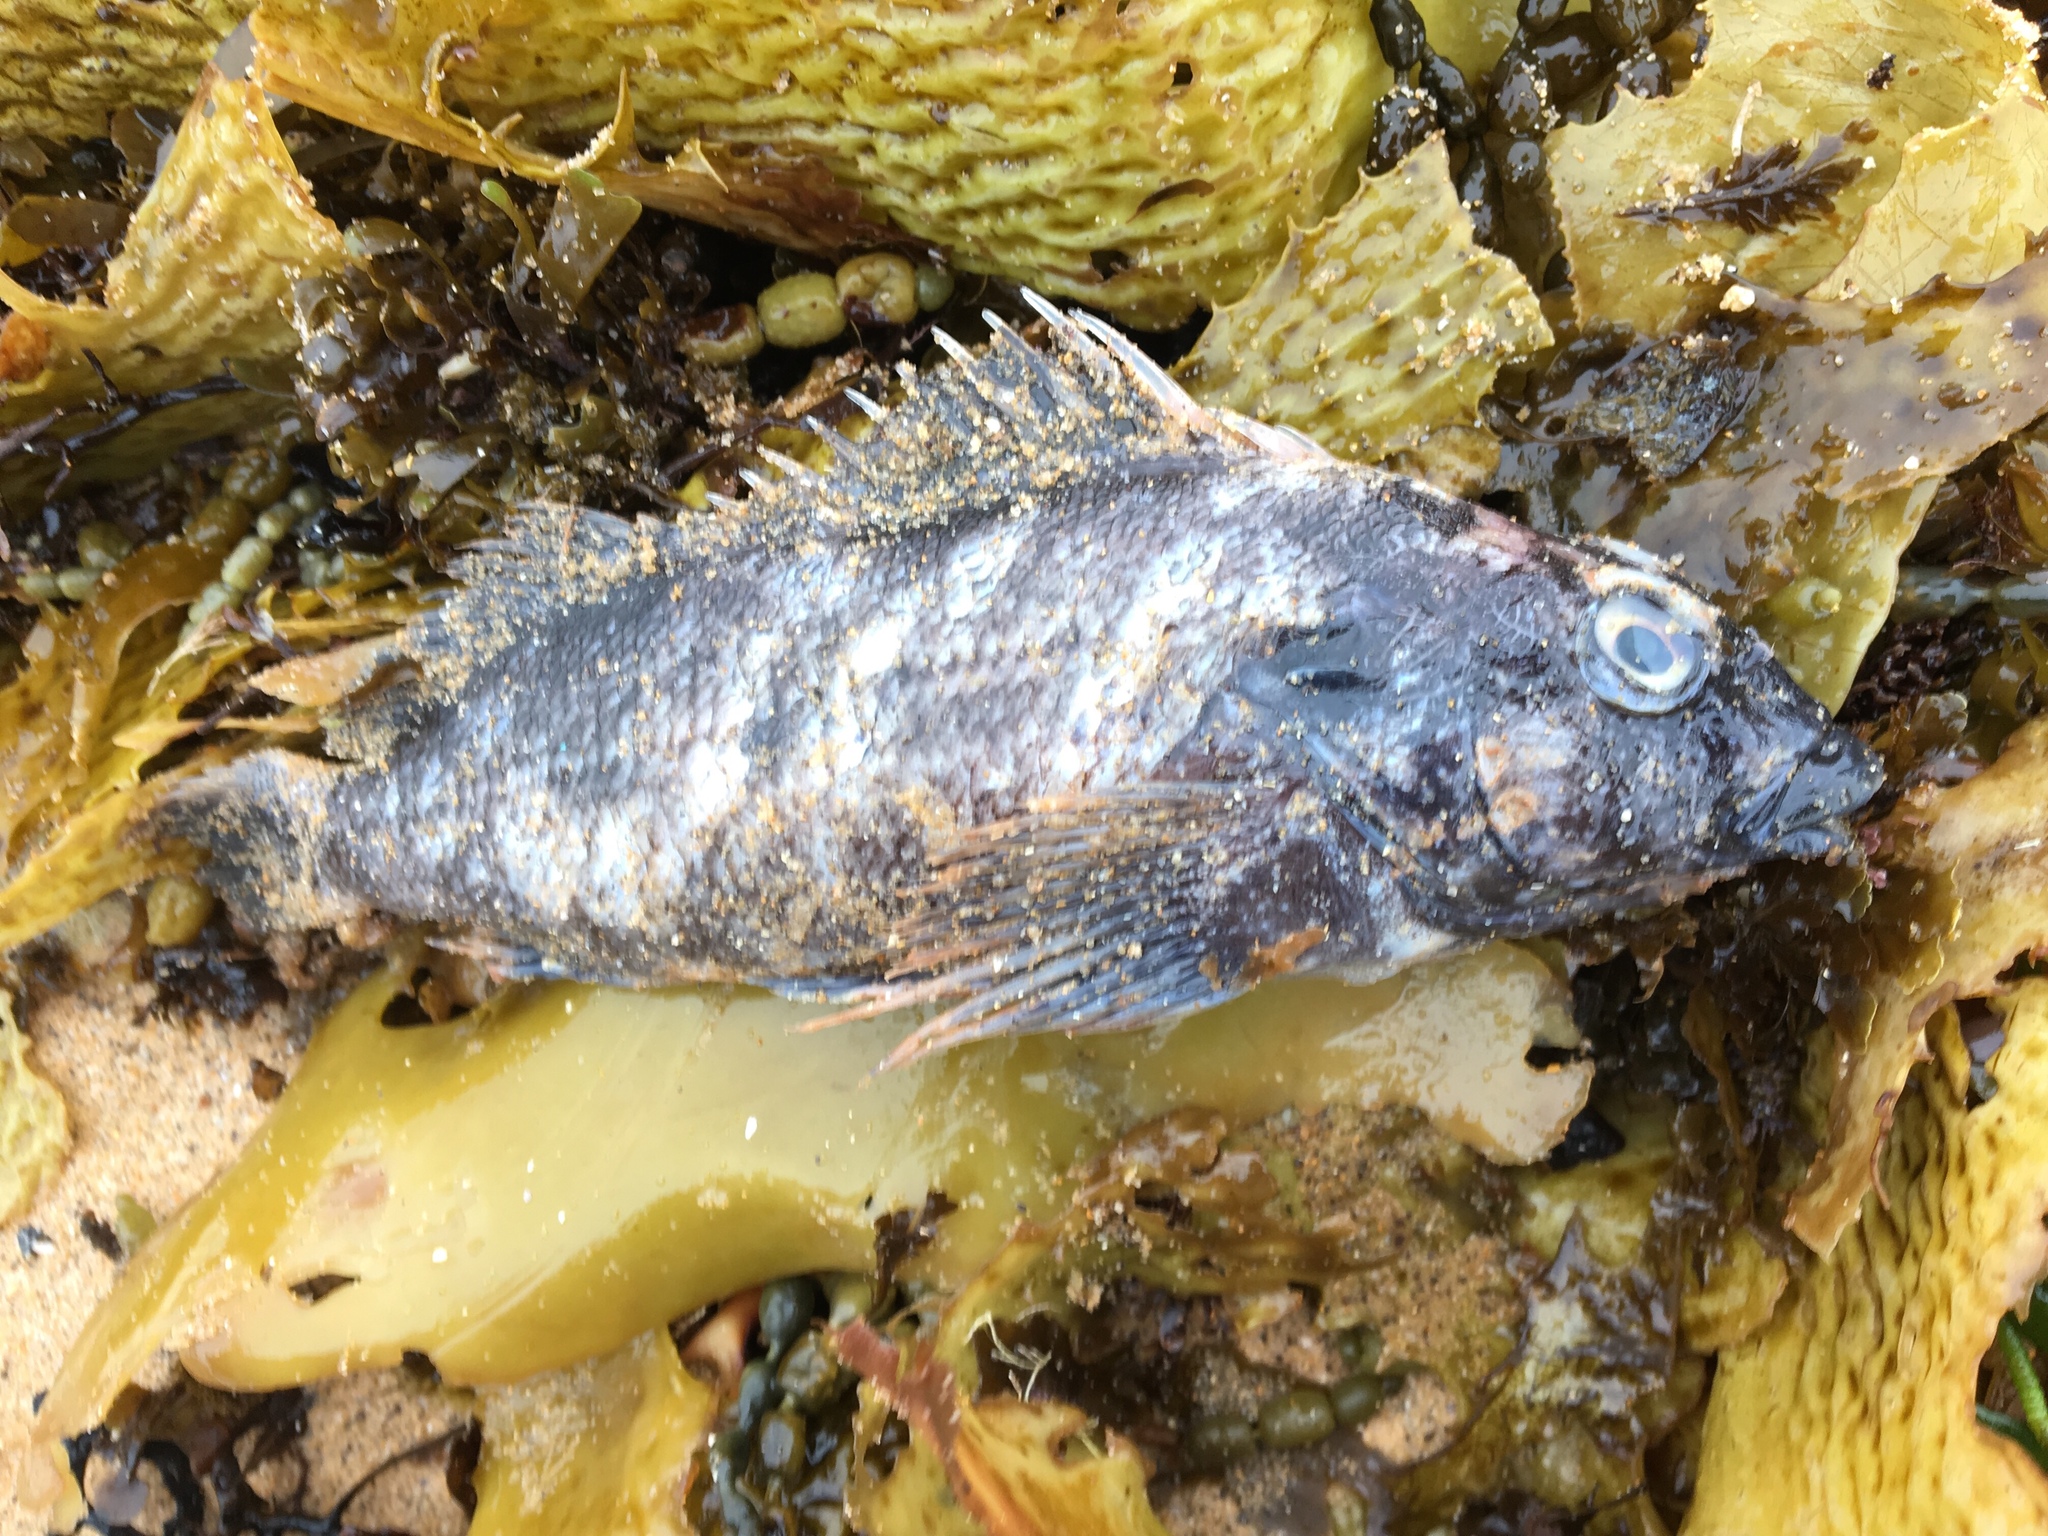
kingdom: Animalia
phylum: Chordata
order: Perciformes
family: Chironemidae
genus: Chironemus
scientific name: Chironemus marmoratus
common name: Kelpfish
